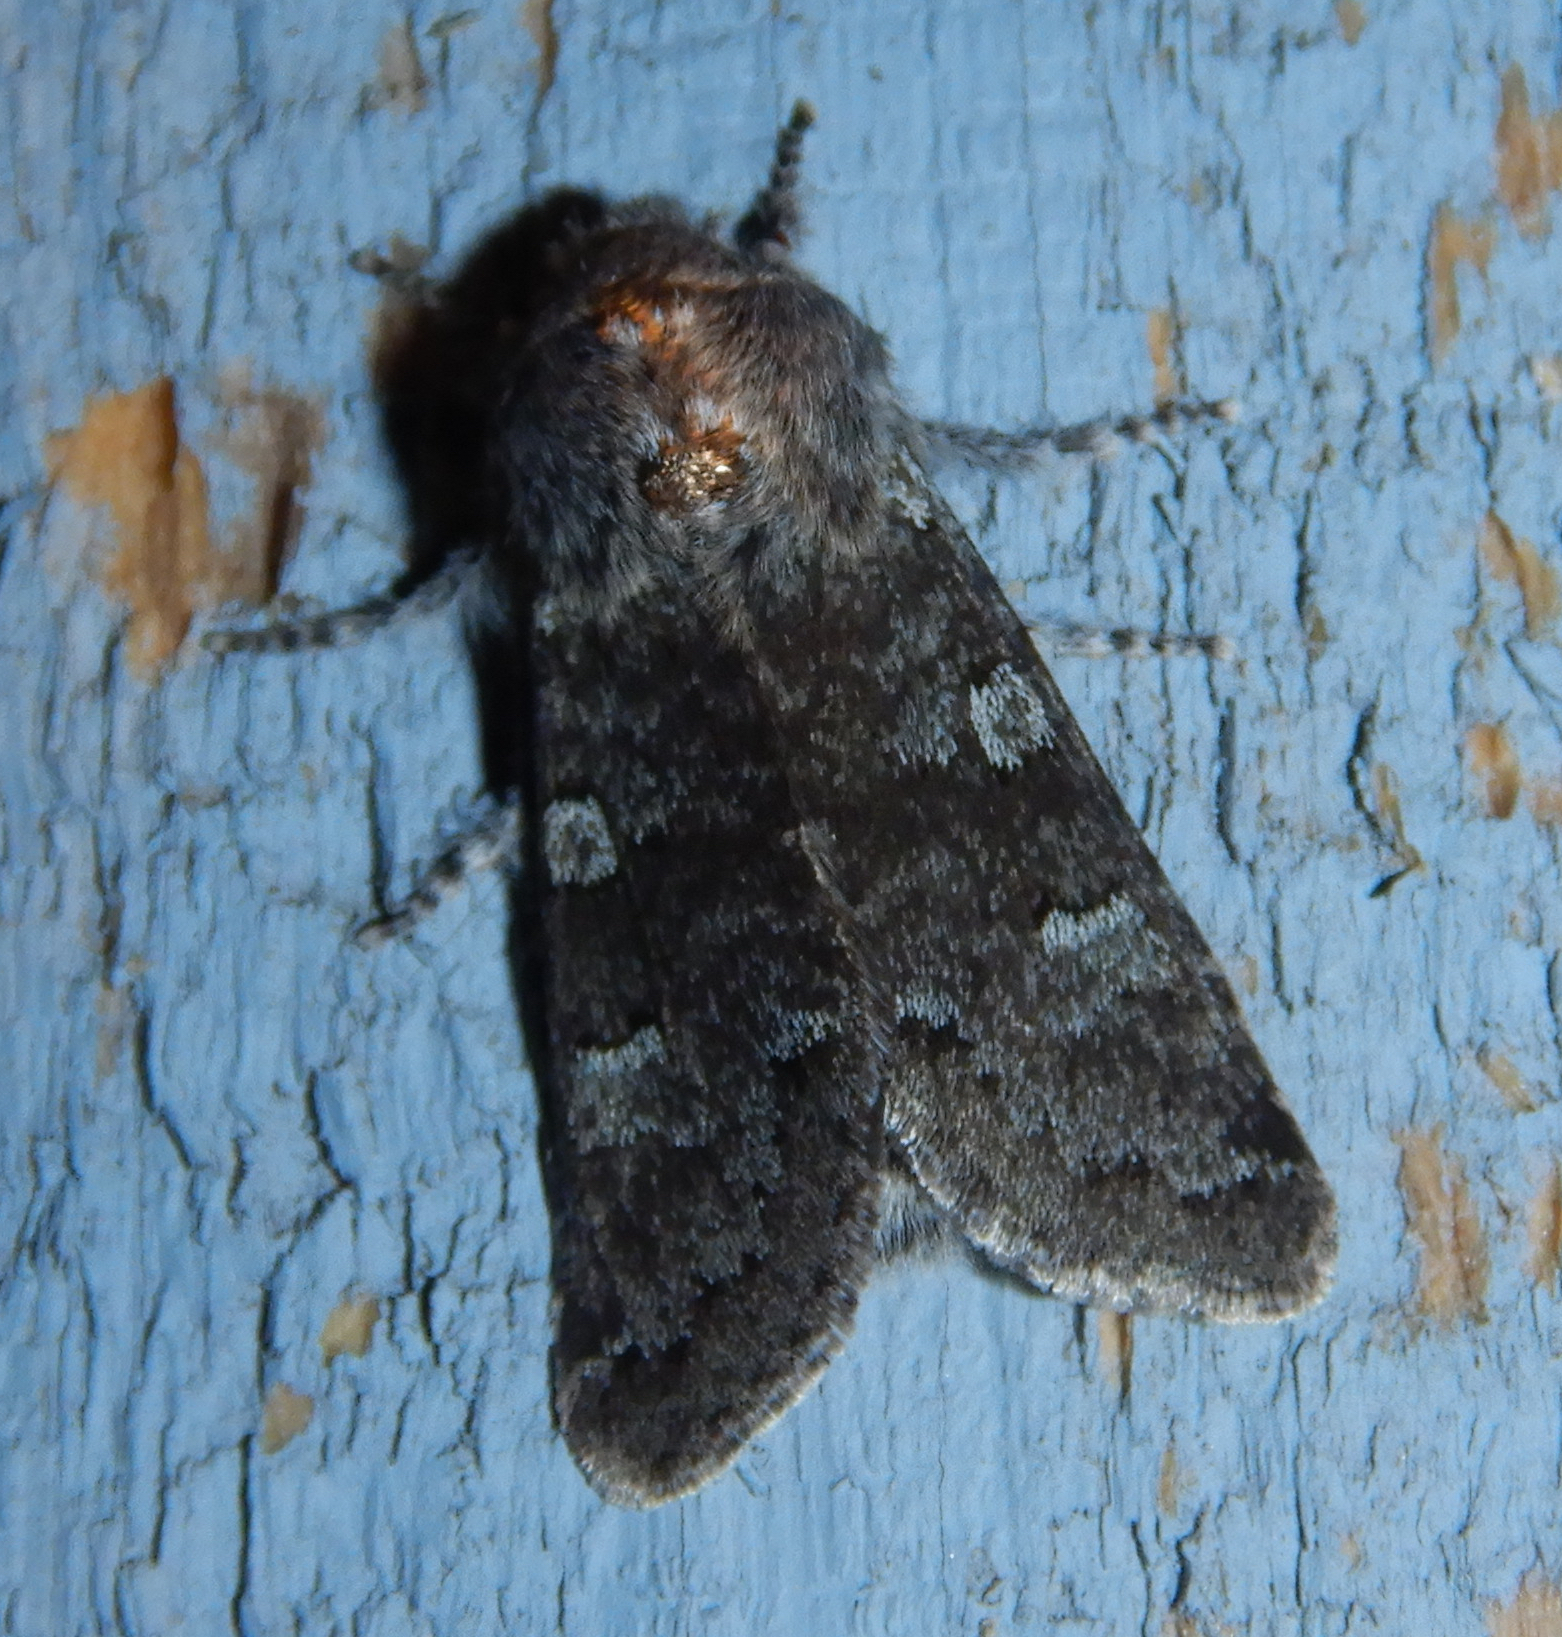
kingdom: Animalia
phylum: Arthropoda
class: Insecta
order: Lepidoptera
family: Noctuidae
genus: Psaphida
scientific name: Psaphida rolandi
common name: Roland's sallow
